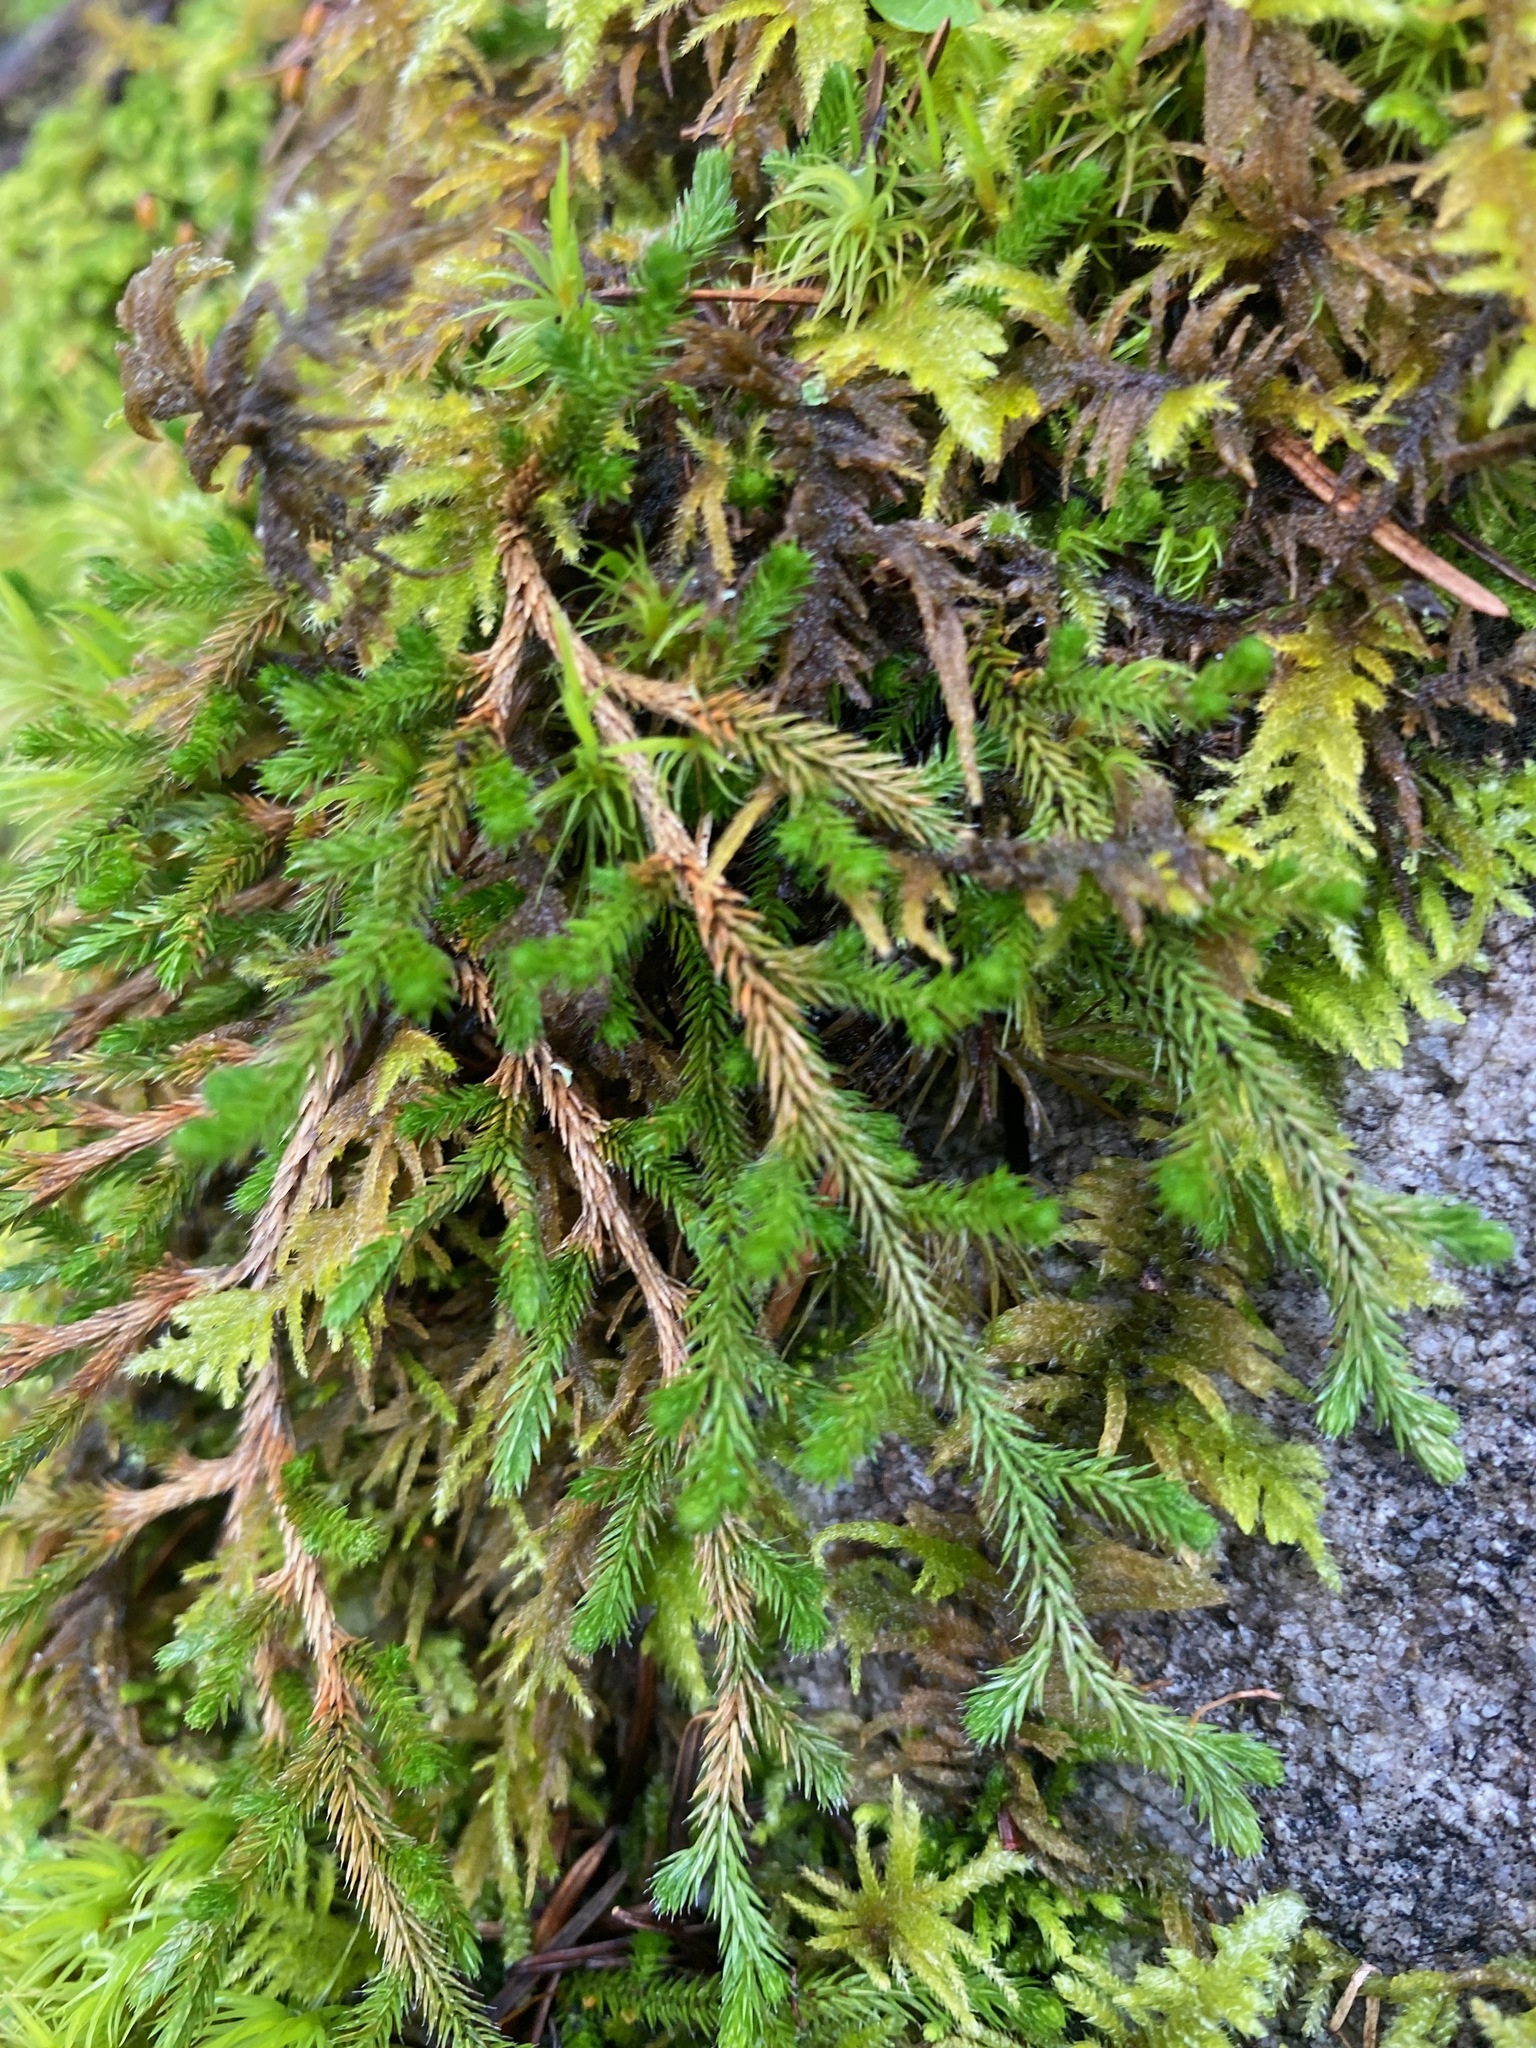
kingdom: Plantae
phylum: Tracheophyta
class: Lycopodiopsida
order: Selaginellales
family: Selaginellaceae
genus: Selaginella
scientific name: Selaginella wallacei
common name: Wallace's selaginella
